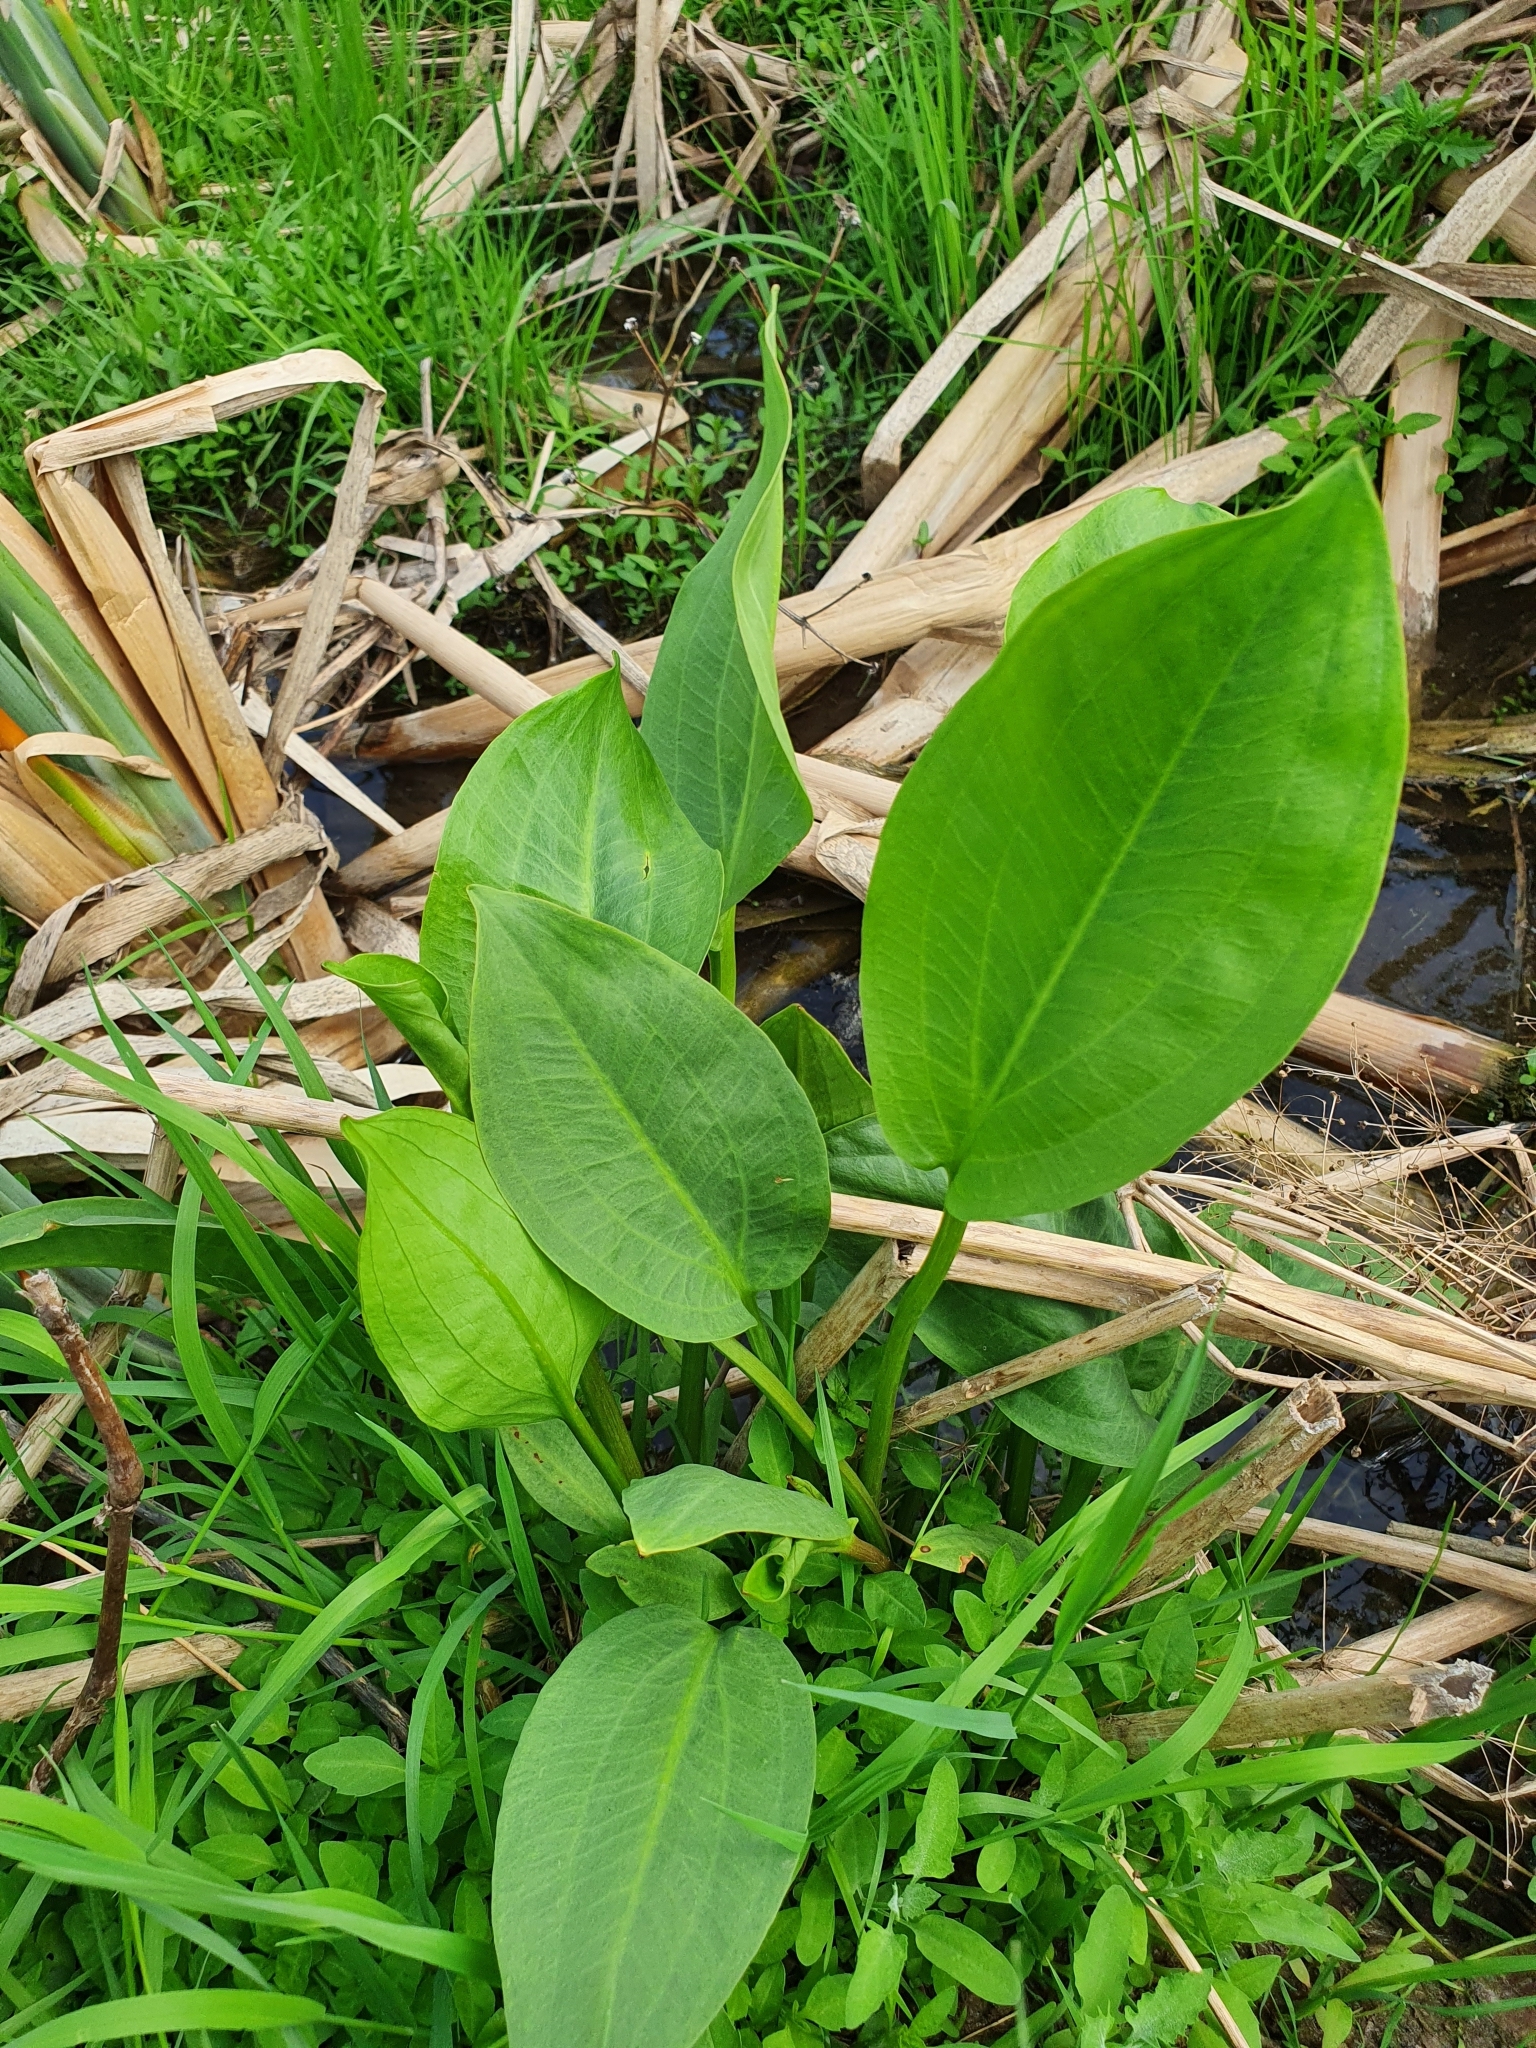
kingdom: Plantae
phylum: Tracheophyta
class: Liliopsida
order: Alismatales
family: Alismataceae
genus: Alisma
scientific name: Alisma plantago-aquatica
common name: Water-plantain
